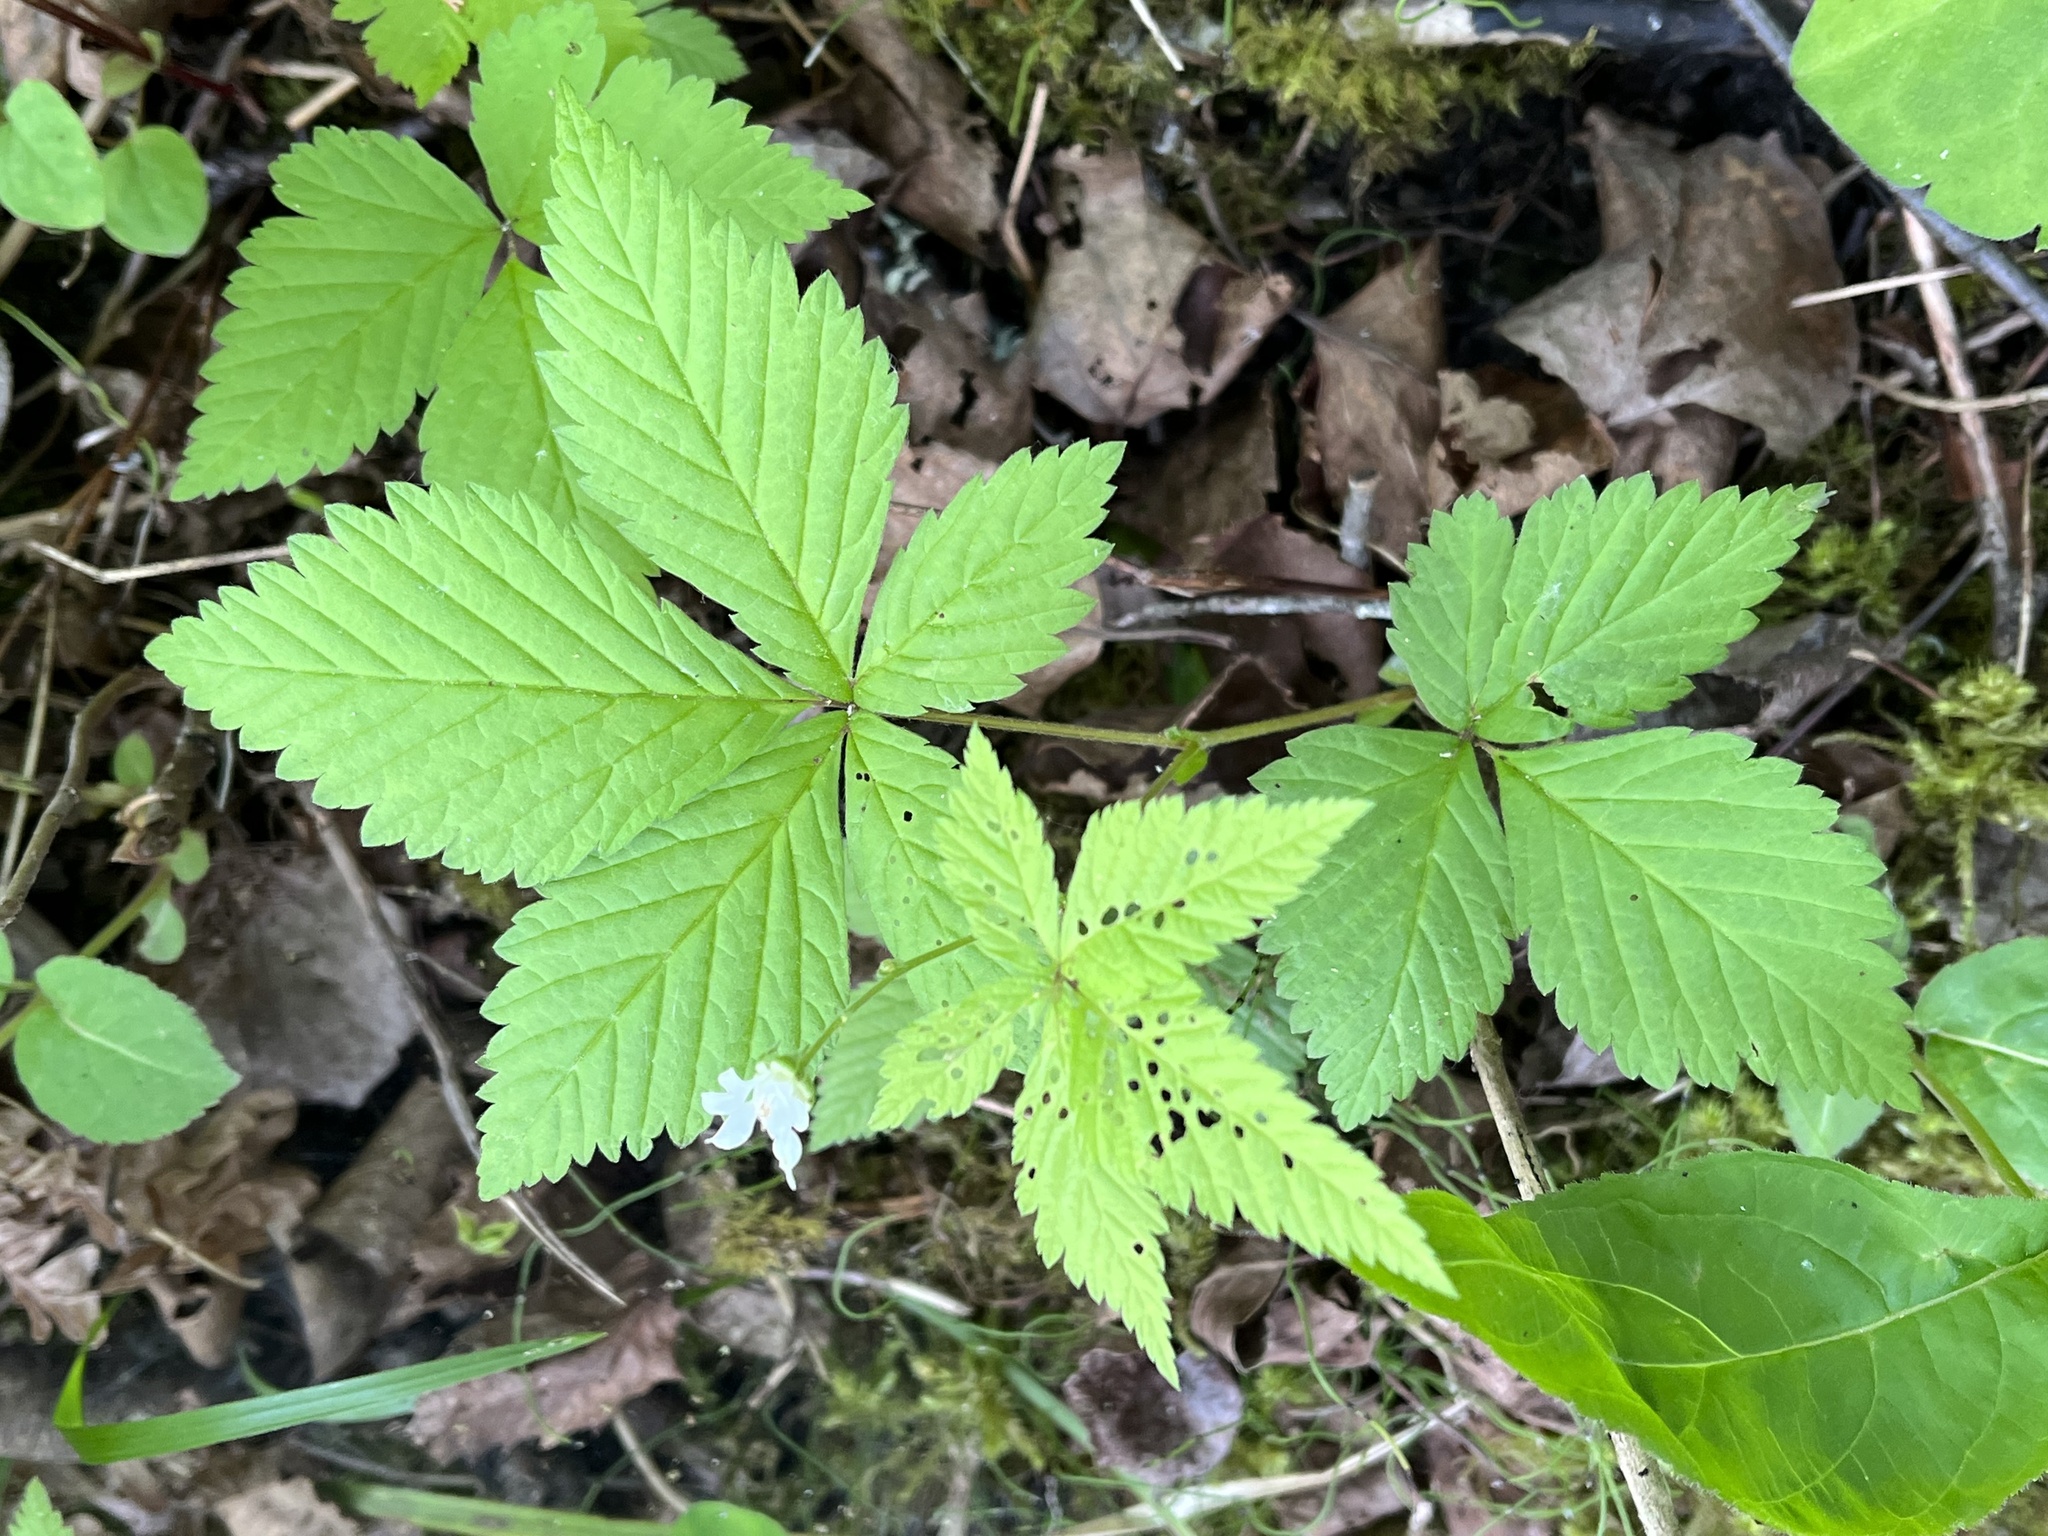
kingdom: Plantae
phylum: Tracheophyta
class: Magnoliopsida
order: Rosales
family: Rosaceae
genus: Rubus
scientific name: Rubus pubescens
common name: Dwarf raspberry
